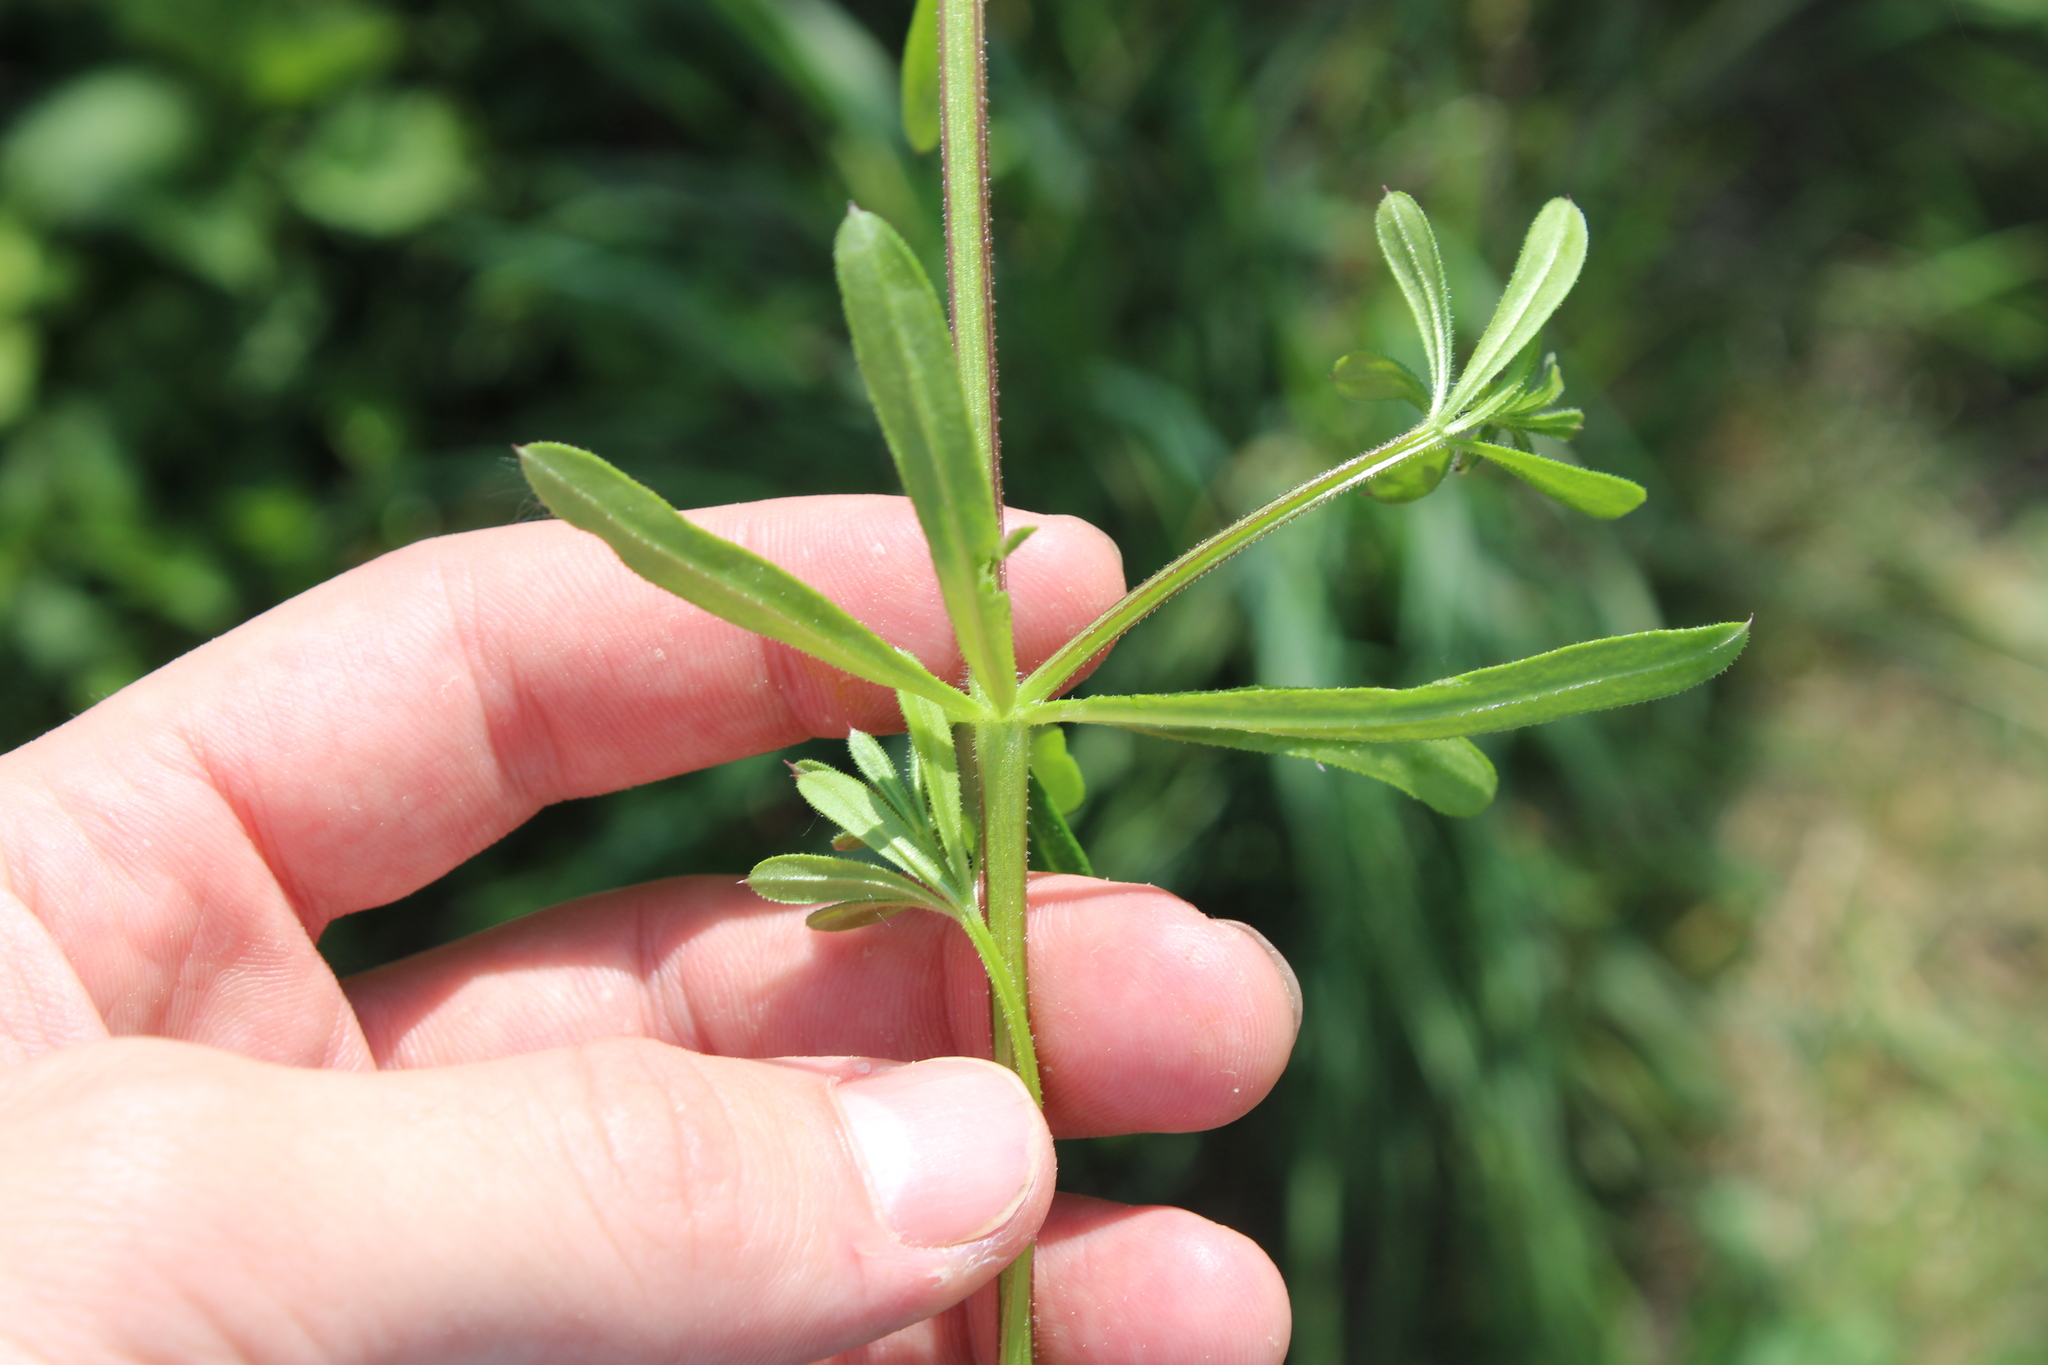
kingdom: Plantae
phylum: Tracheophyta
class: Magnoliopsida
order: Gentianales
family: Rubiaceae
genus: Galium
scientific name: Galium aparine
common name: Cleavers
